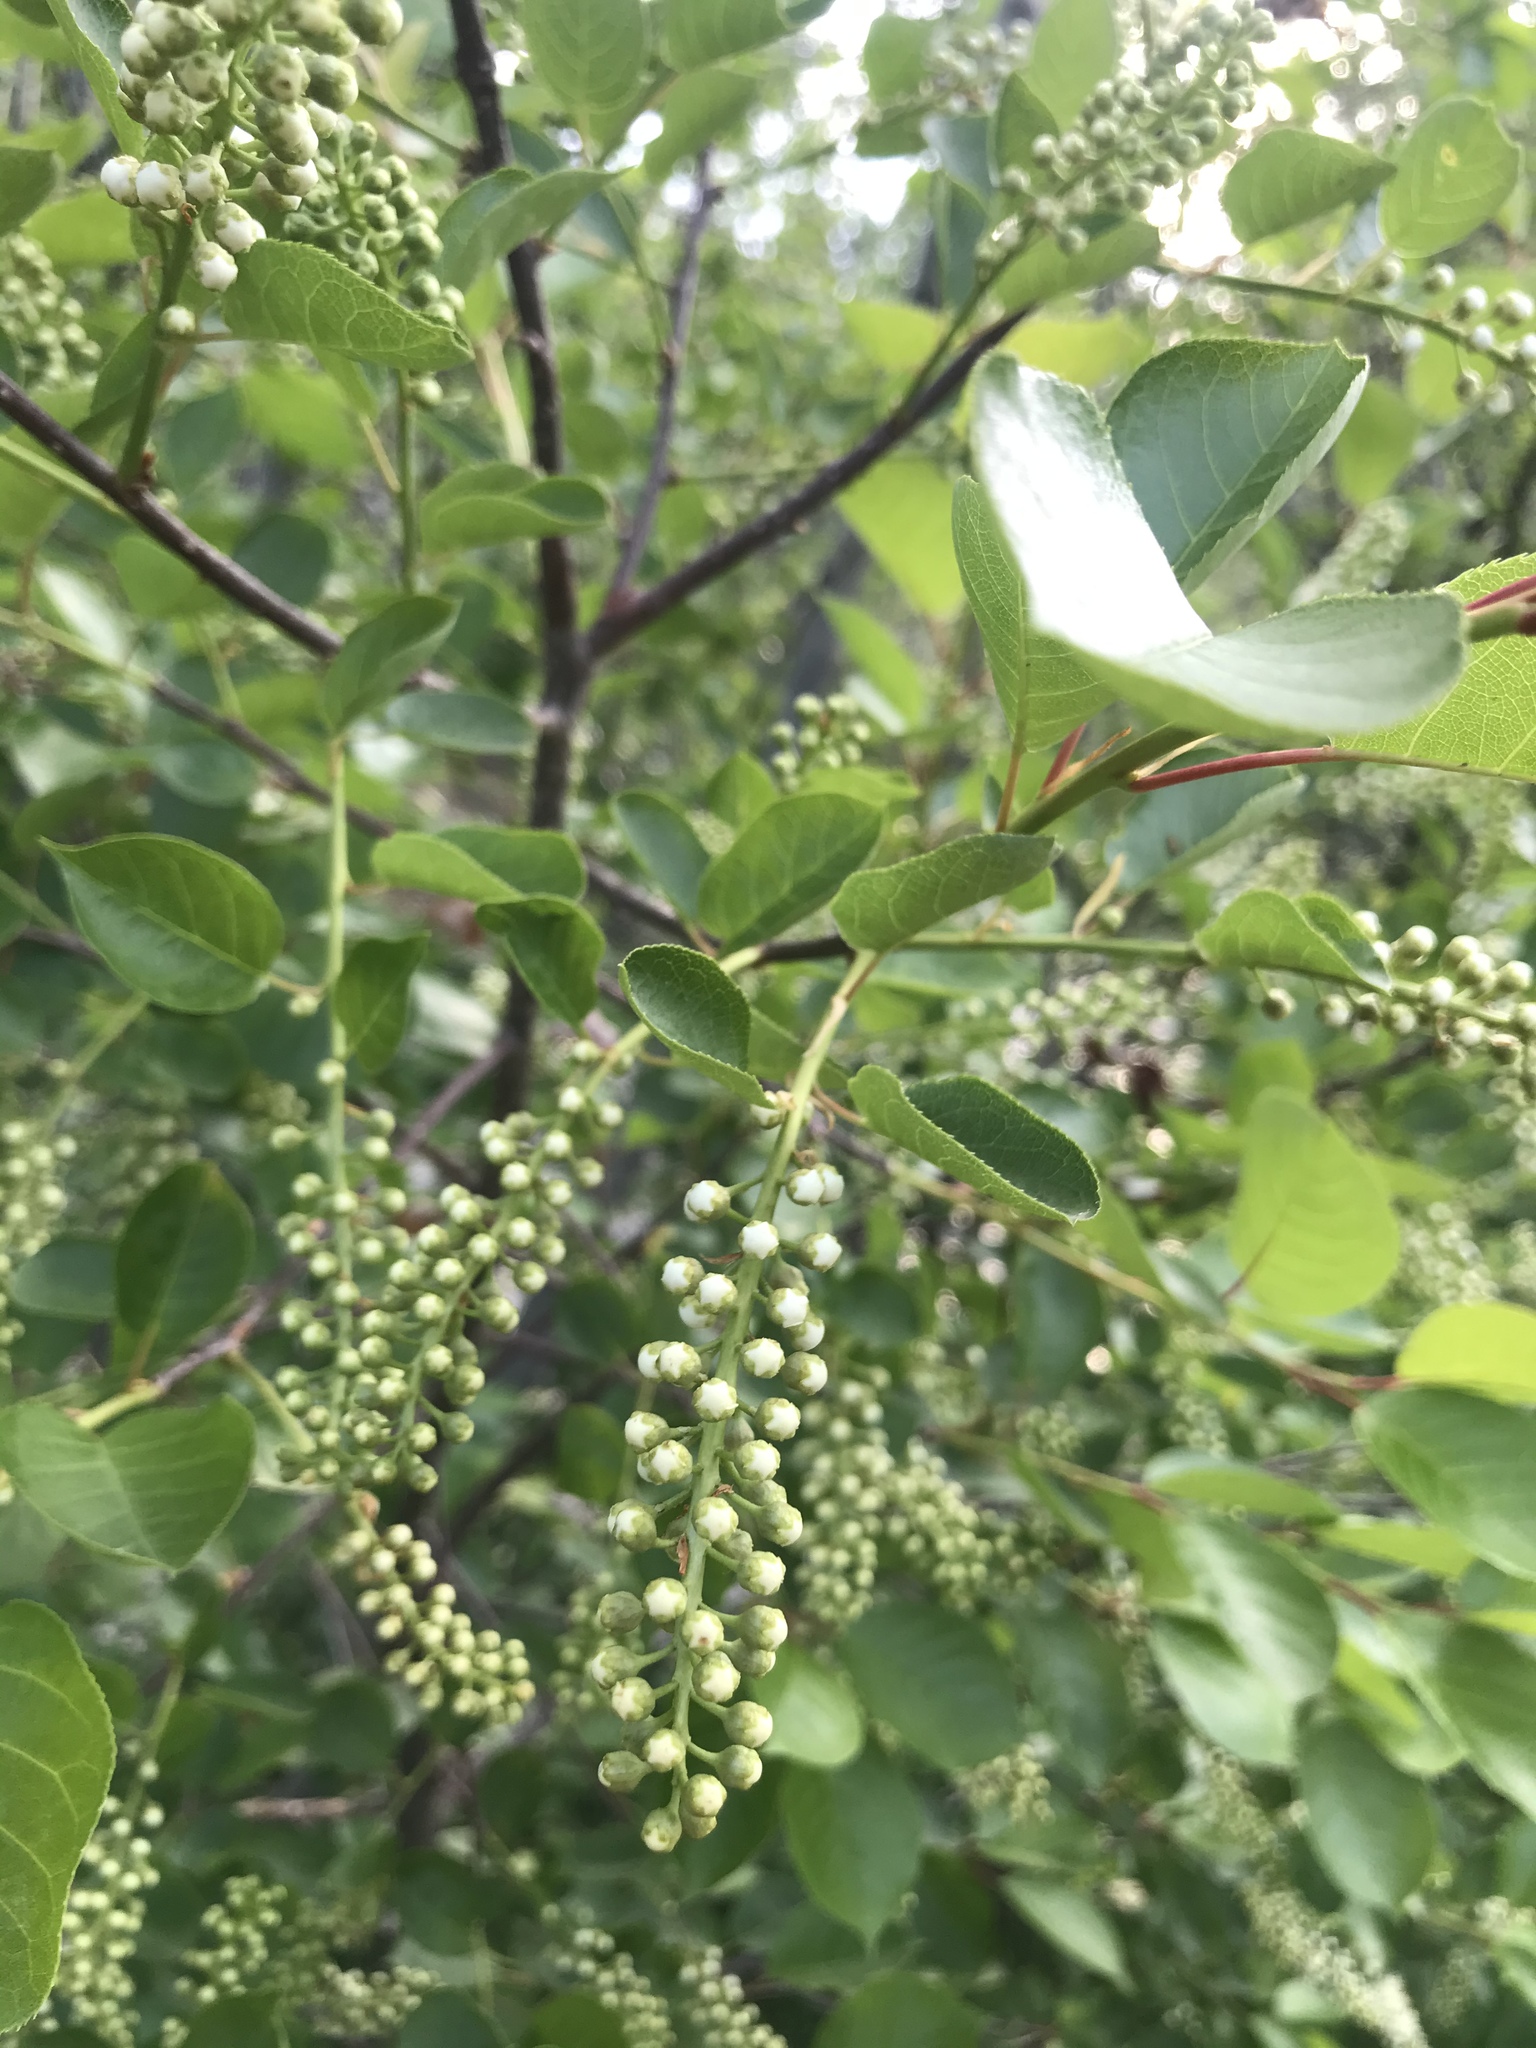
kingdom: Plantae
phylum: Tracheophyta
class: Magnoliopsida
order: Rosales
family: Rosaceae
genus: Prunus
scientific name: Prunus virginiana
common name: Chokecherry
